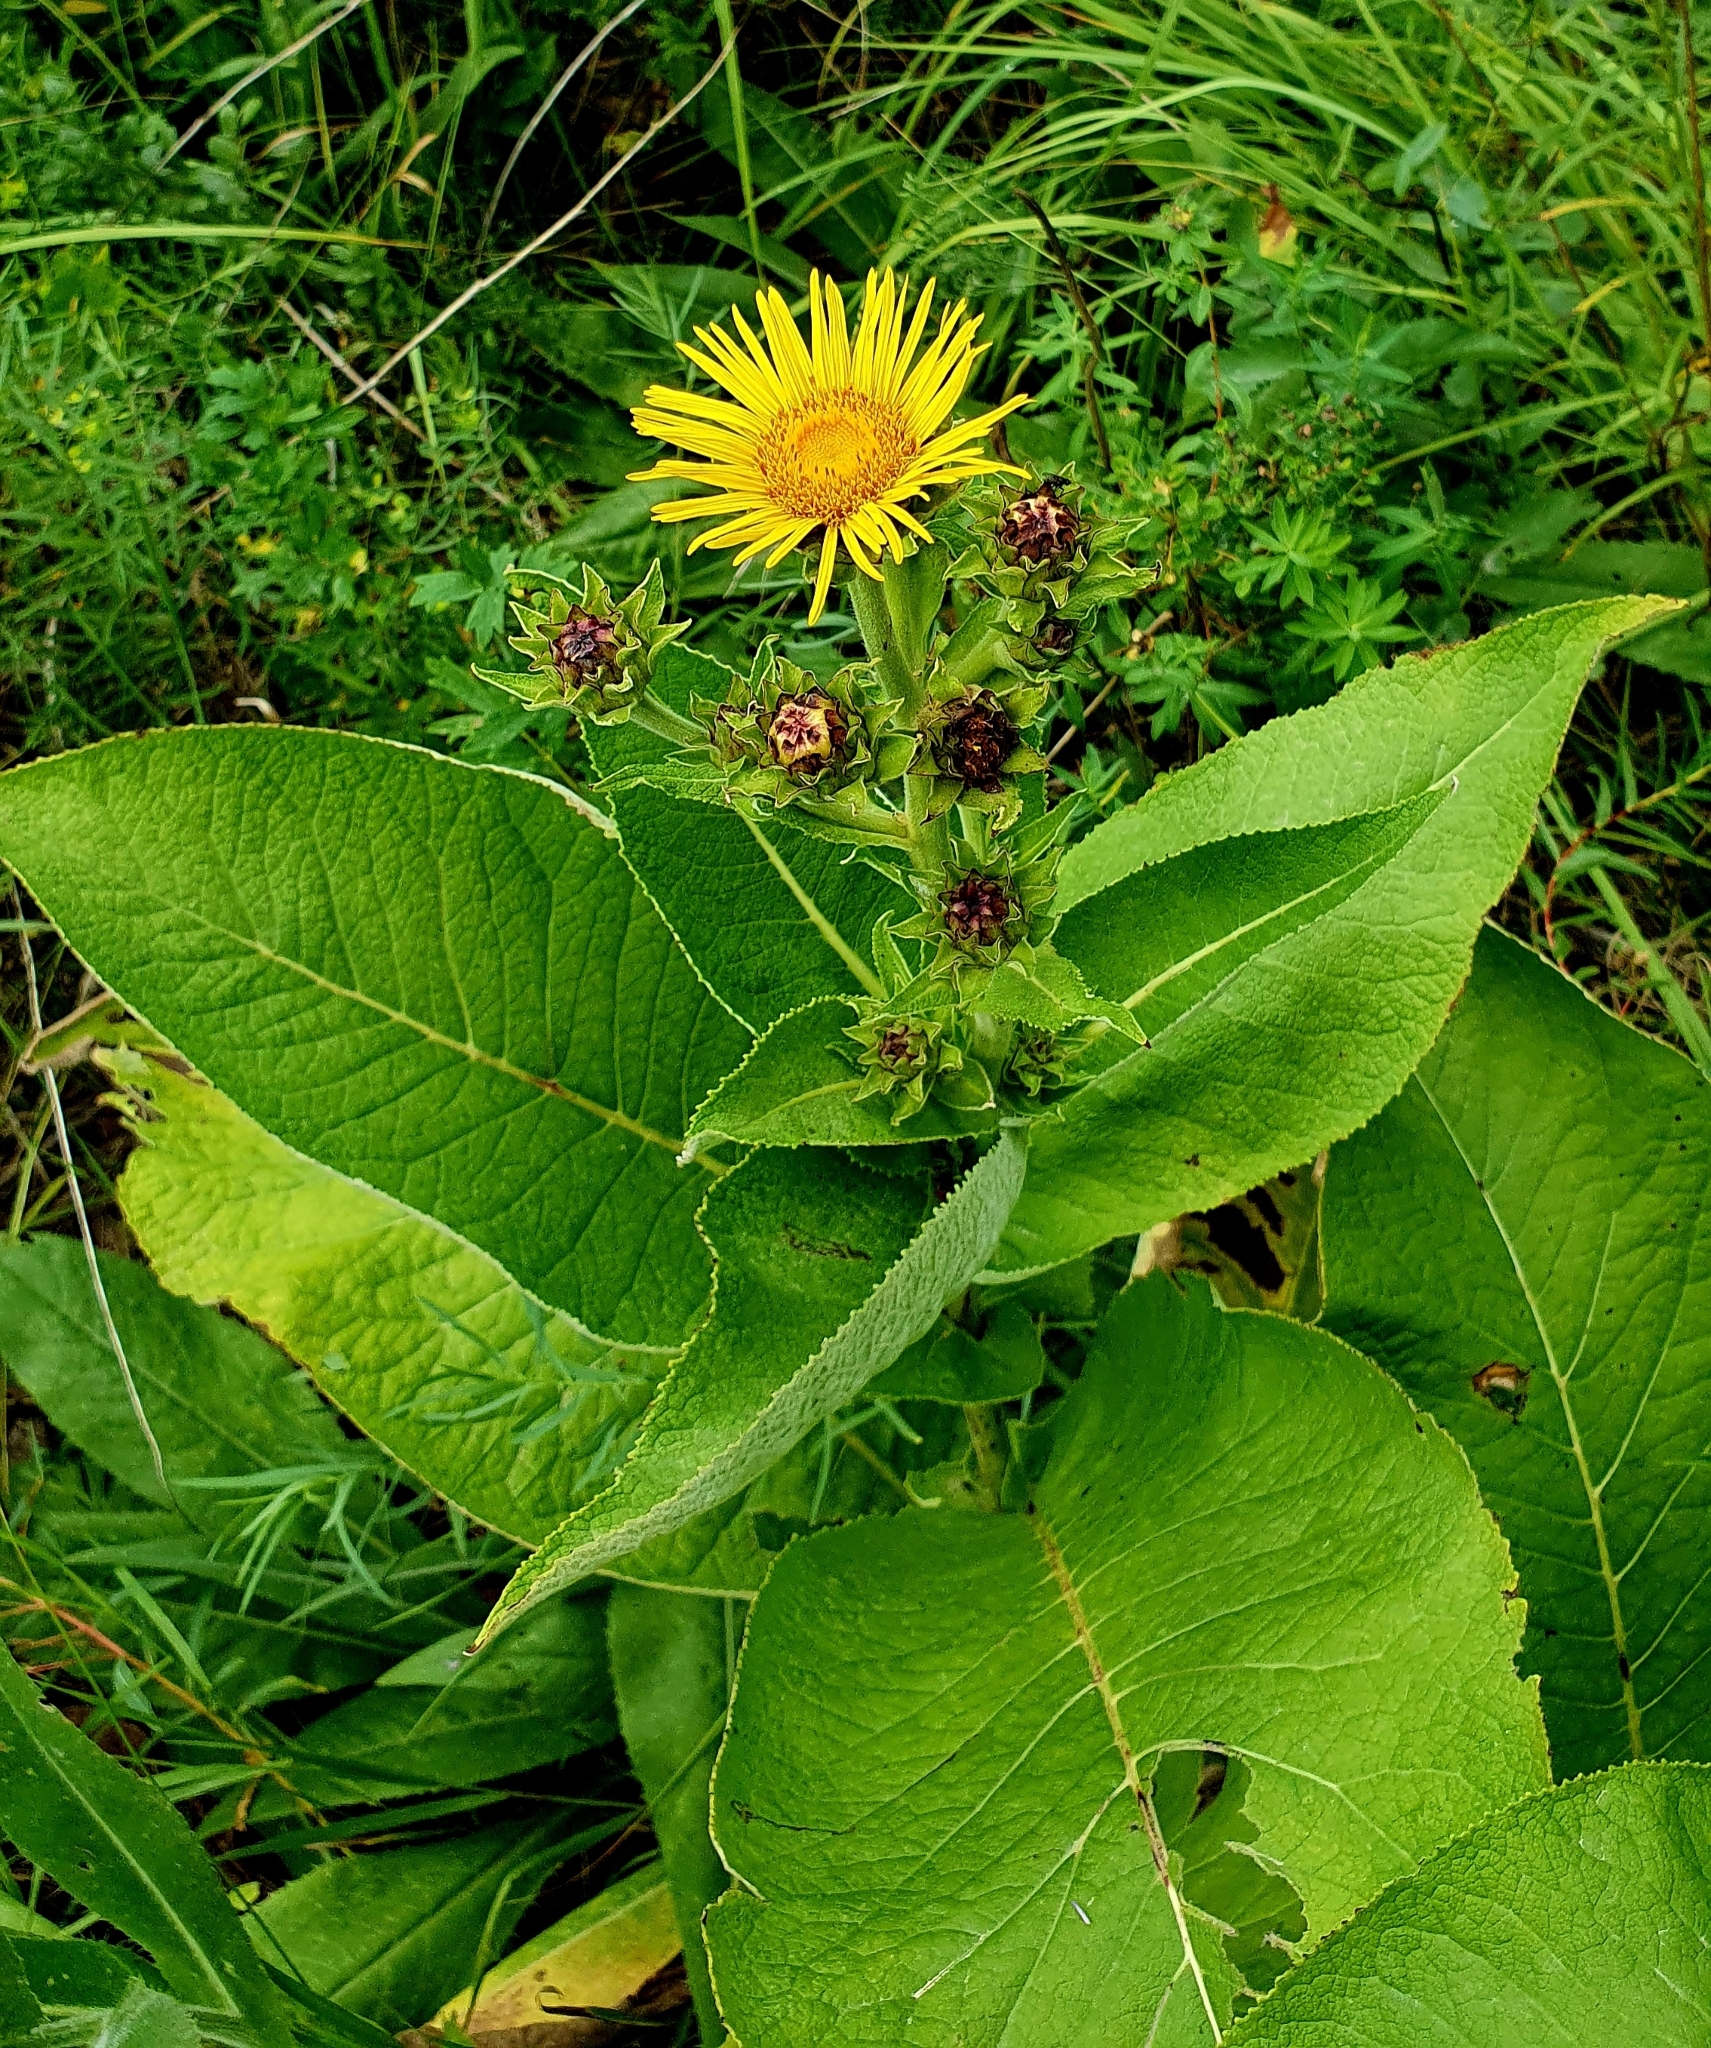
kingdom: Plantae
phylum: Tracheophyta
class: Magnoliopsida
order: Asterales
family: Asteraceae
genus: Inula
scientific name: Inula helenium
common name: Elecampane
